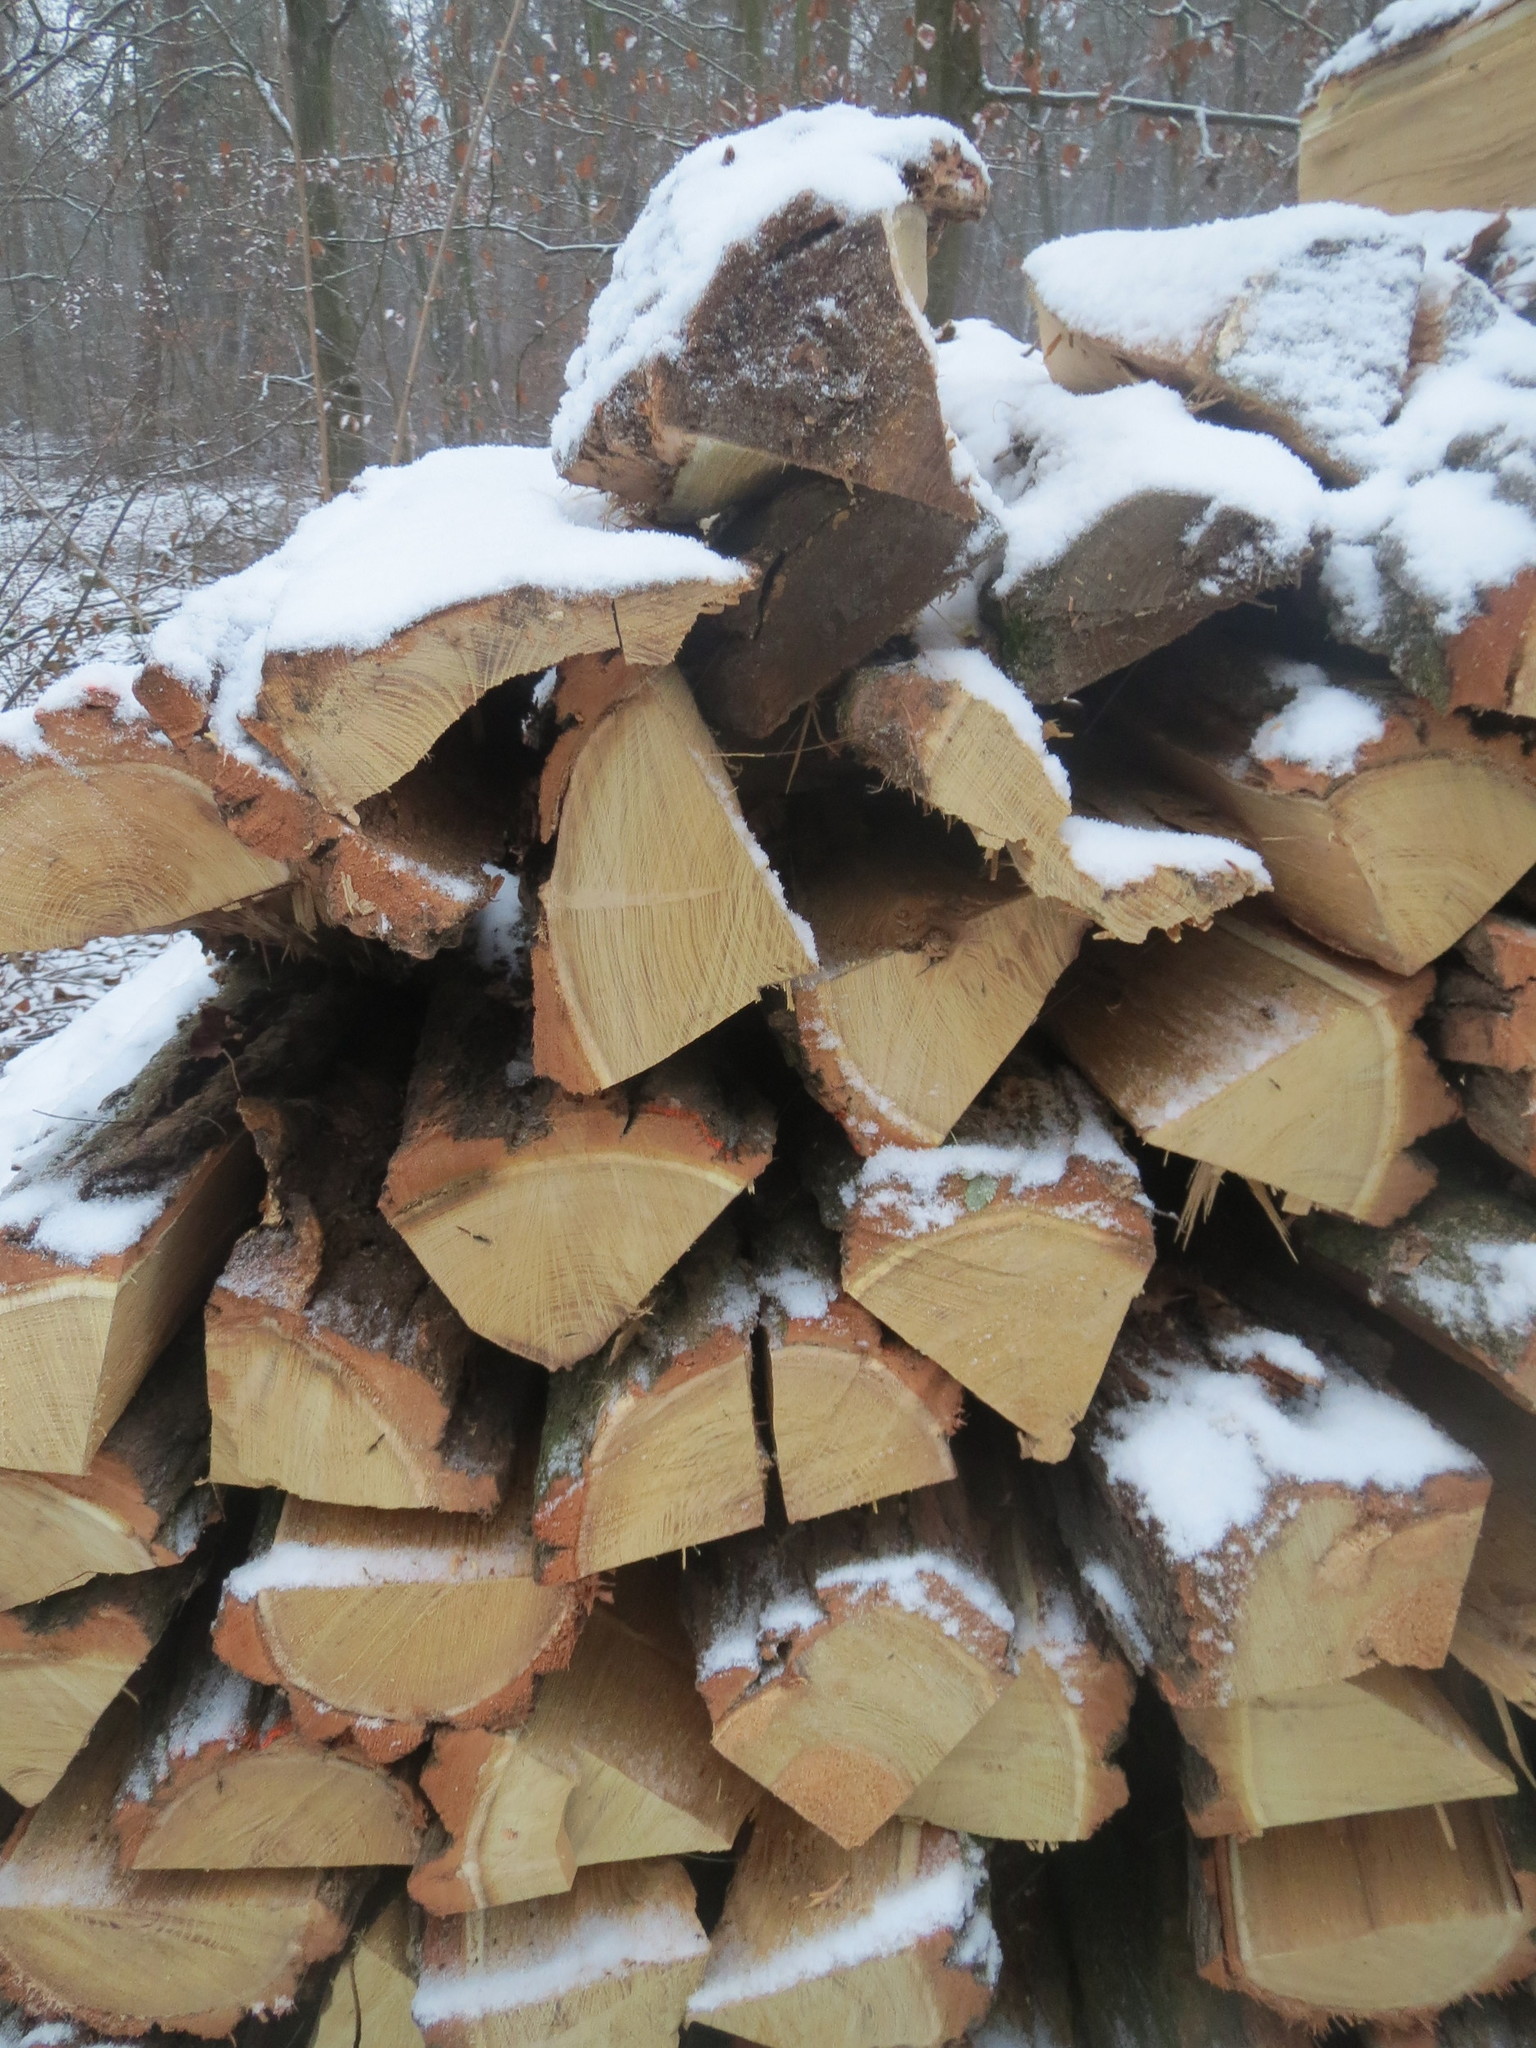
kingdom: Plantae
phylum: Tracheophyta
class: Magnoliopsida
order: Fabales
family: Fabaceae
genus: Robinia
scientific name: Robinia pseudoacacia
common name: Black locust
